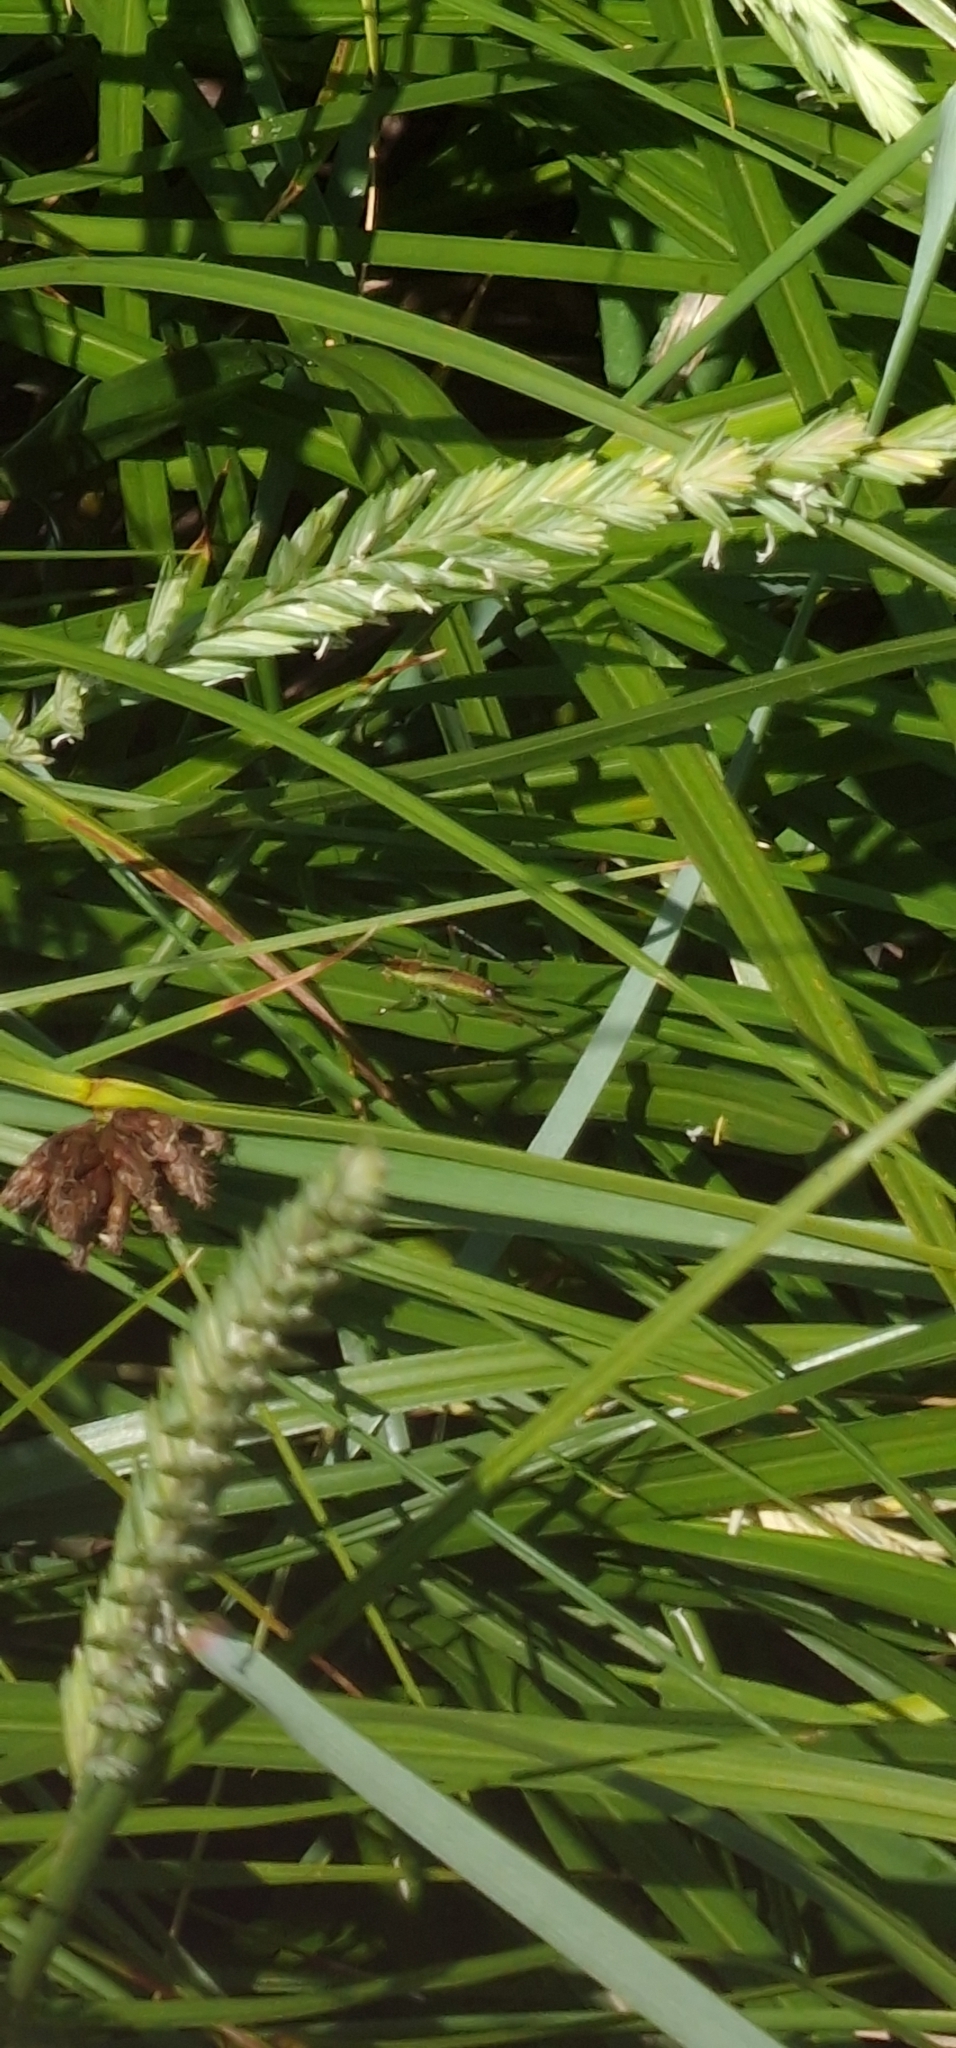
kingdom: Animalia
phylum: Arthropoda
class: Insecta
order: Orthoptera
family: Tettigoniidae
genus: Conocephalus
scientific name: Conocephalus dorsalis
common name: Short-winged conehead
